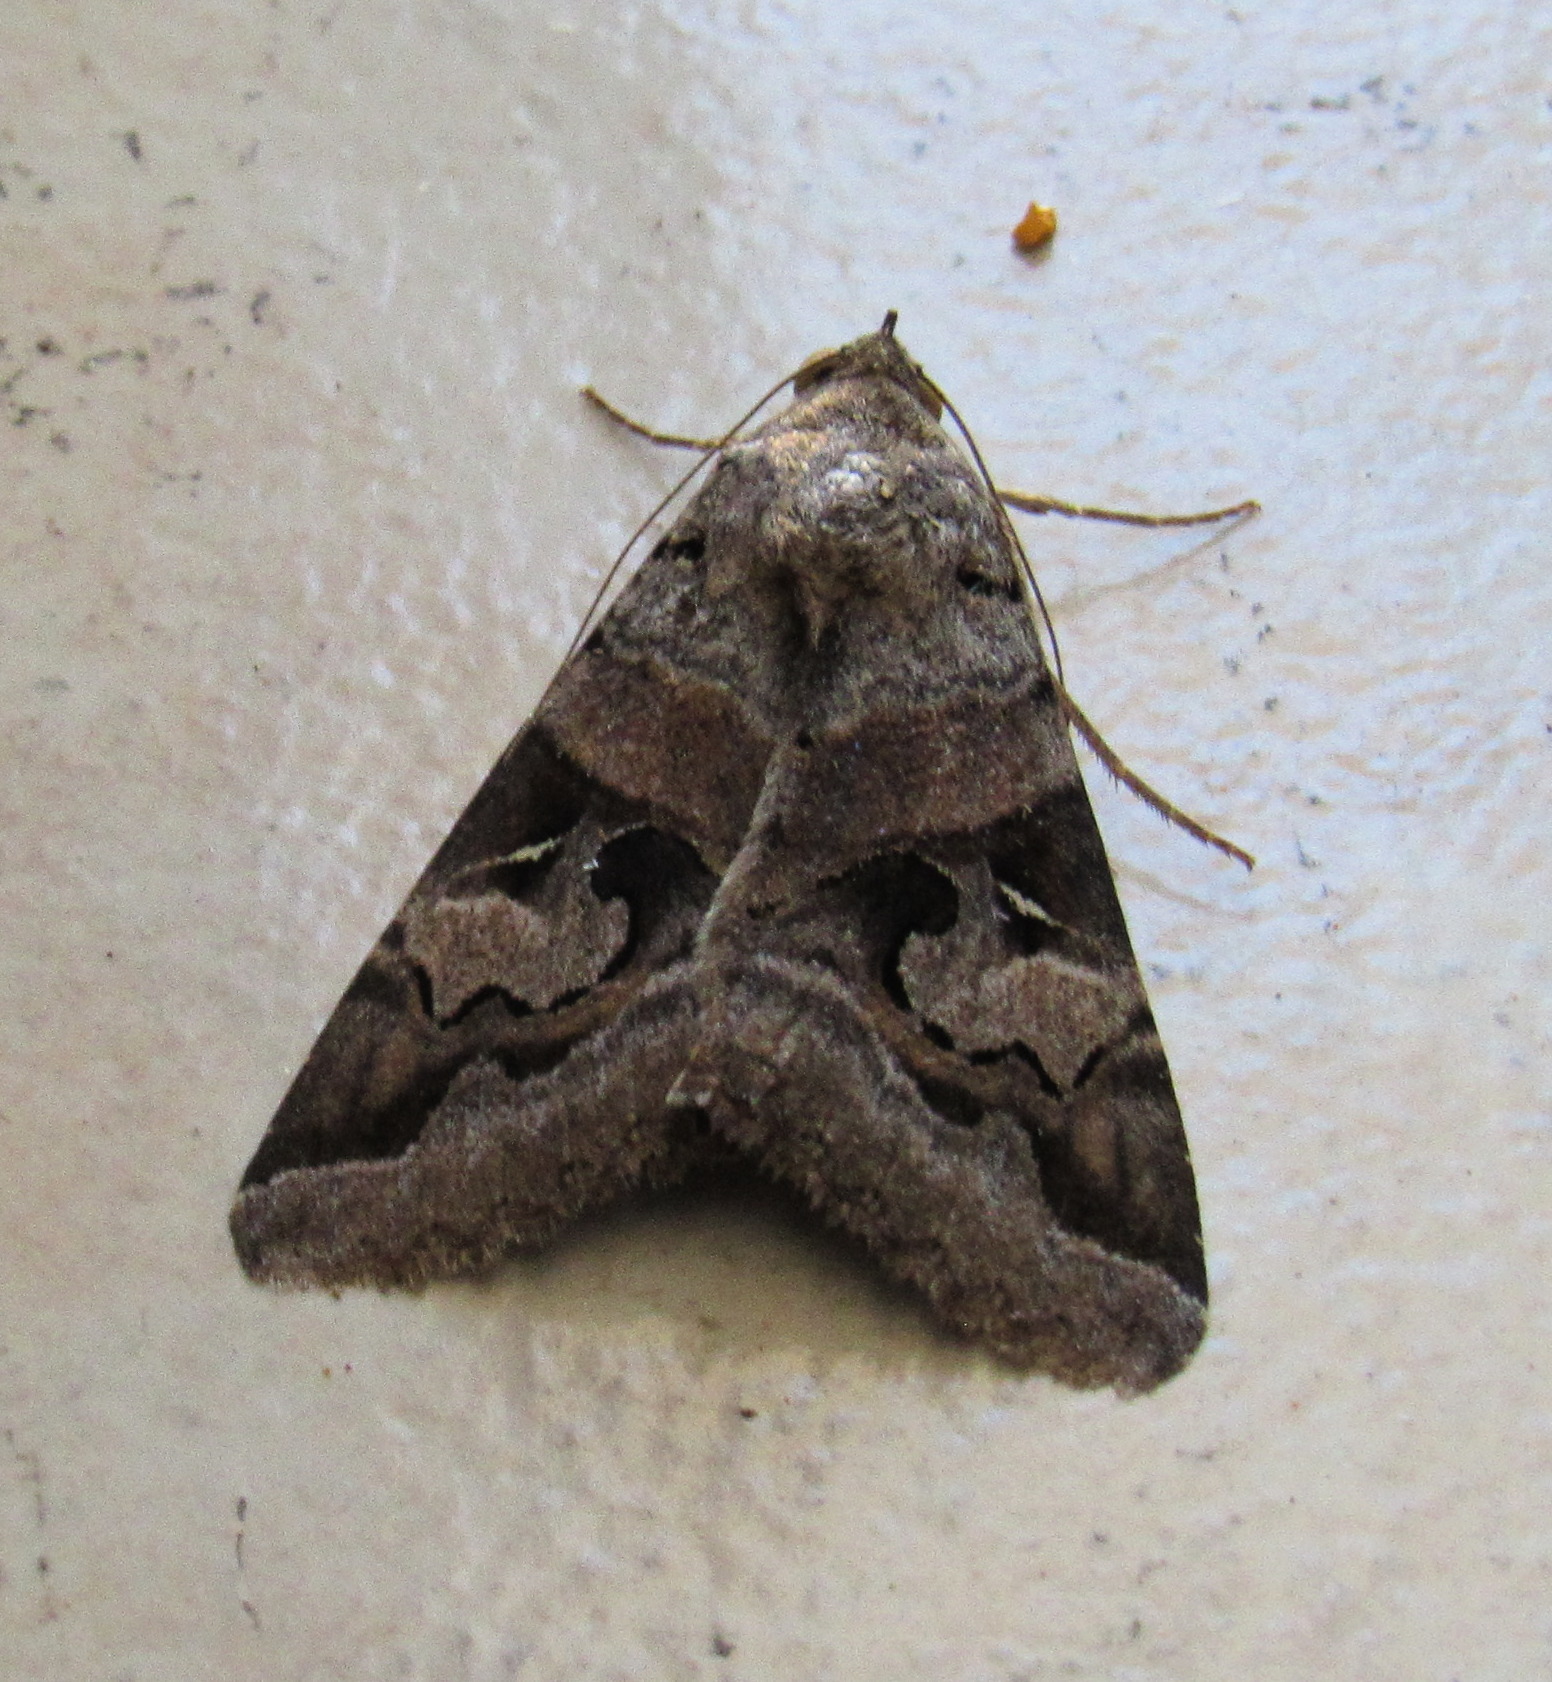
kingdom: Animalia
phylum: Arthropoda
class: Insecta
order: Lepidoptera
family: Erebidae
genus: Melipotis
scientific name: Melipotis indomita
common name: Moth
